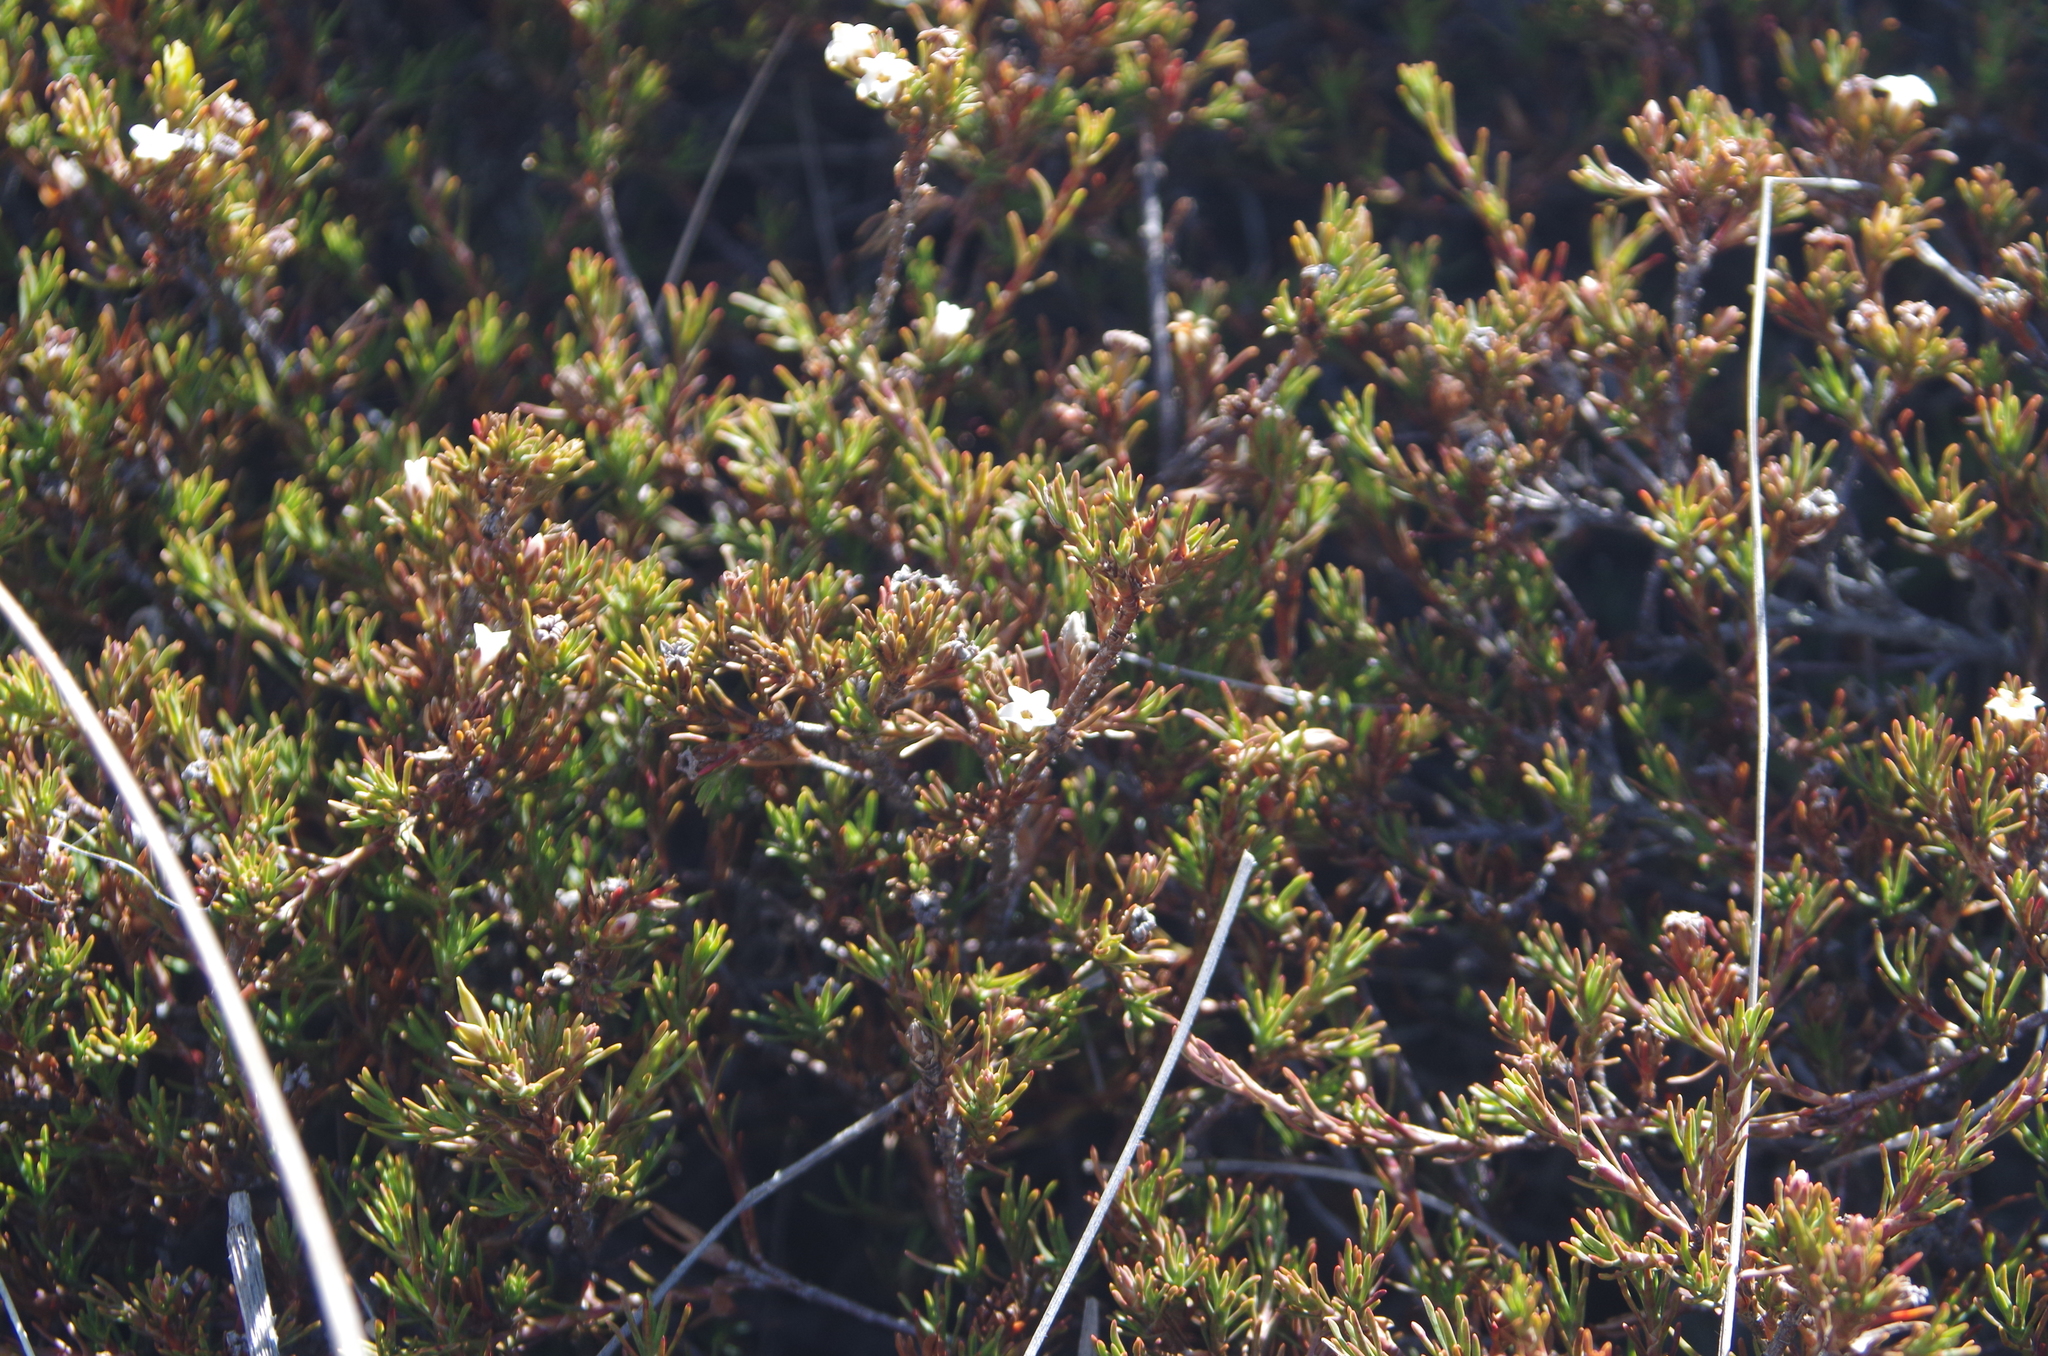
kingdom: Plantae
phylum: Tracheophyta
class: Magnoliopsida
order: Ericales
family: Ericaceae
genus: Dracophyllum
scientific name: Dracophyllum pronum
